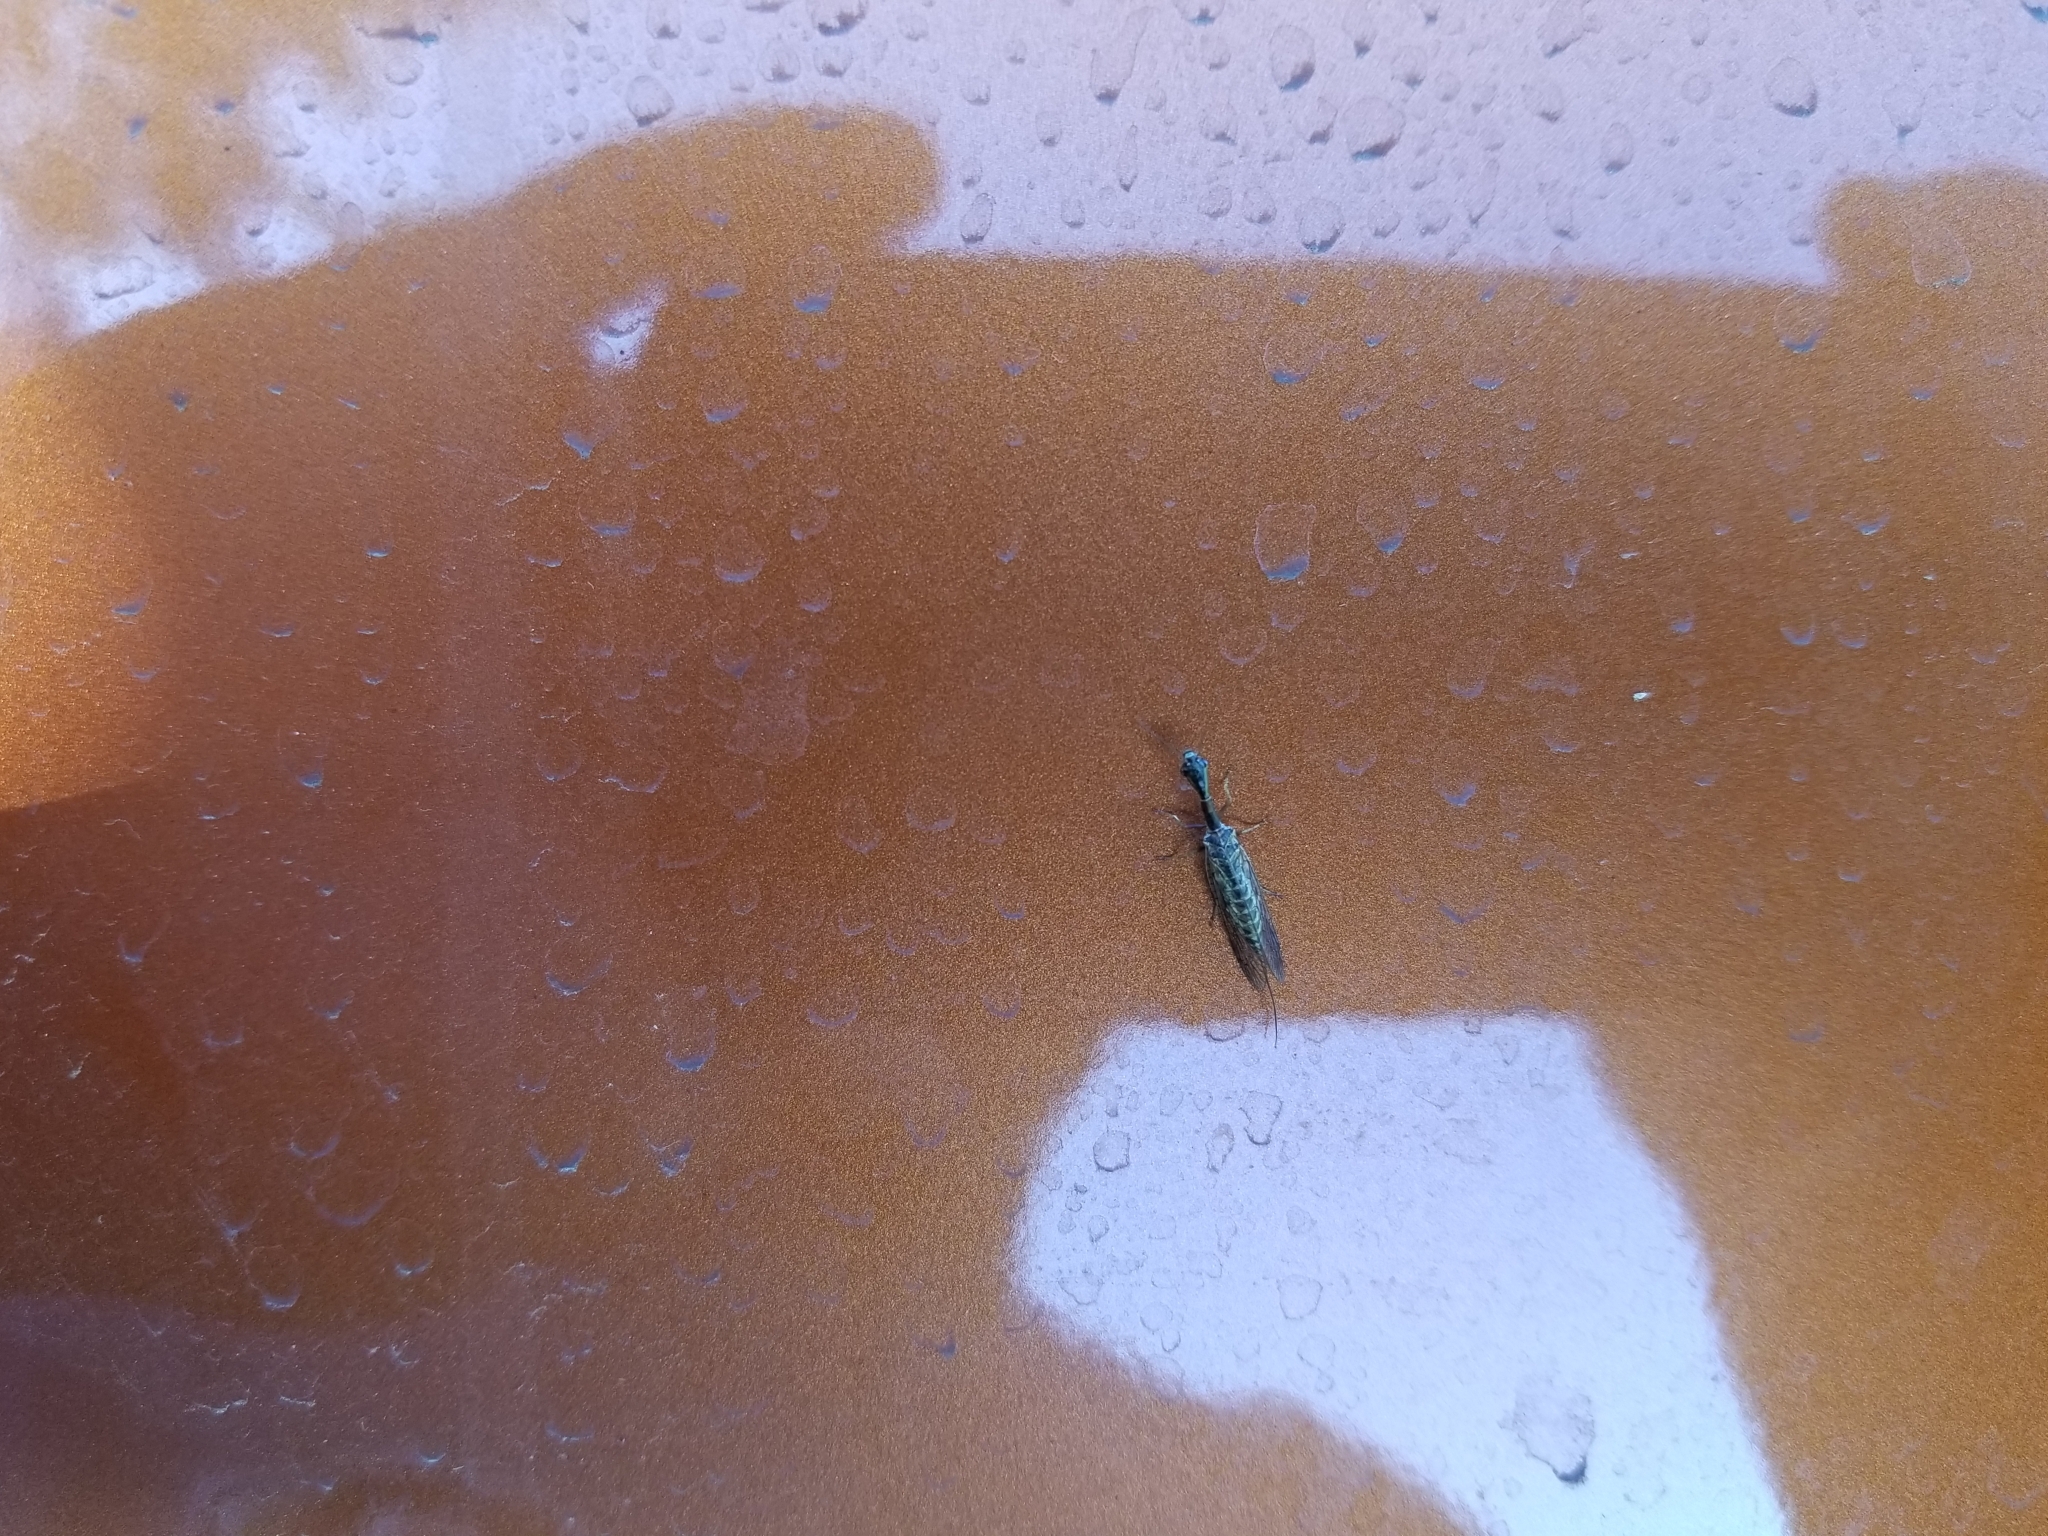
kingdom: Animalia
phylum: Arthropoda
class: Insecta
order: Raphidioptera
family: Raphidiidae
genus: Agulla
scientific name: Agulla bicolor
